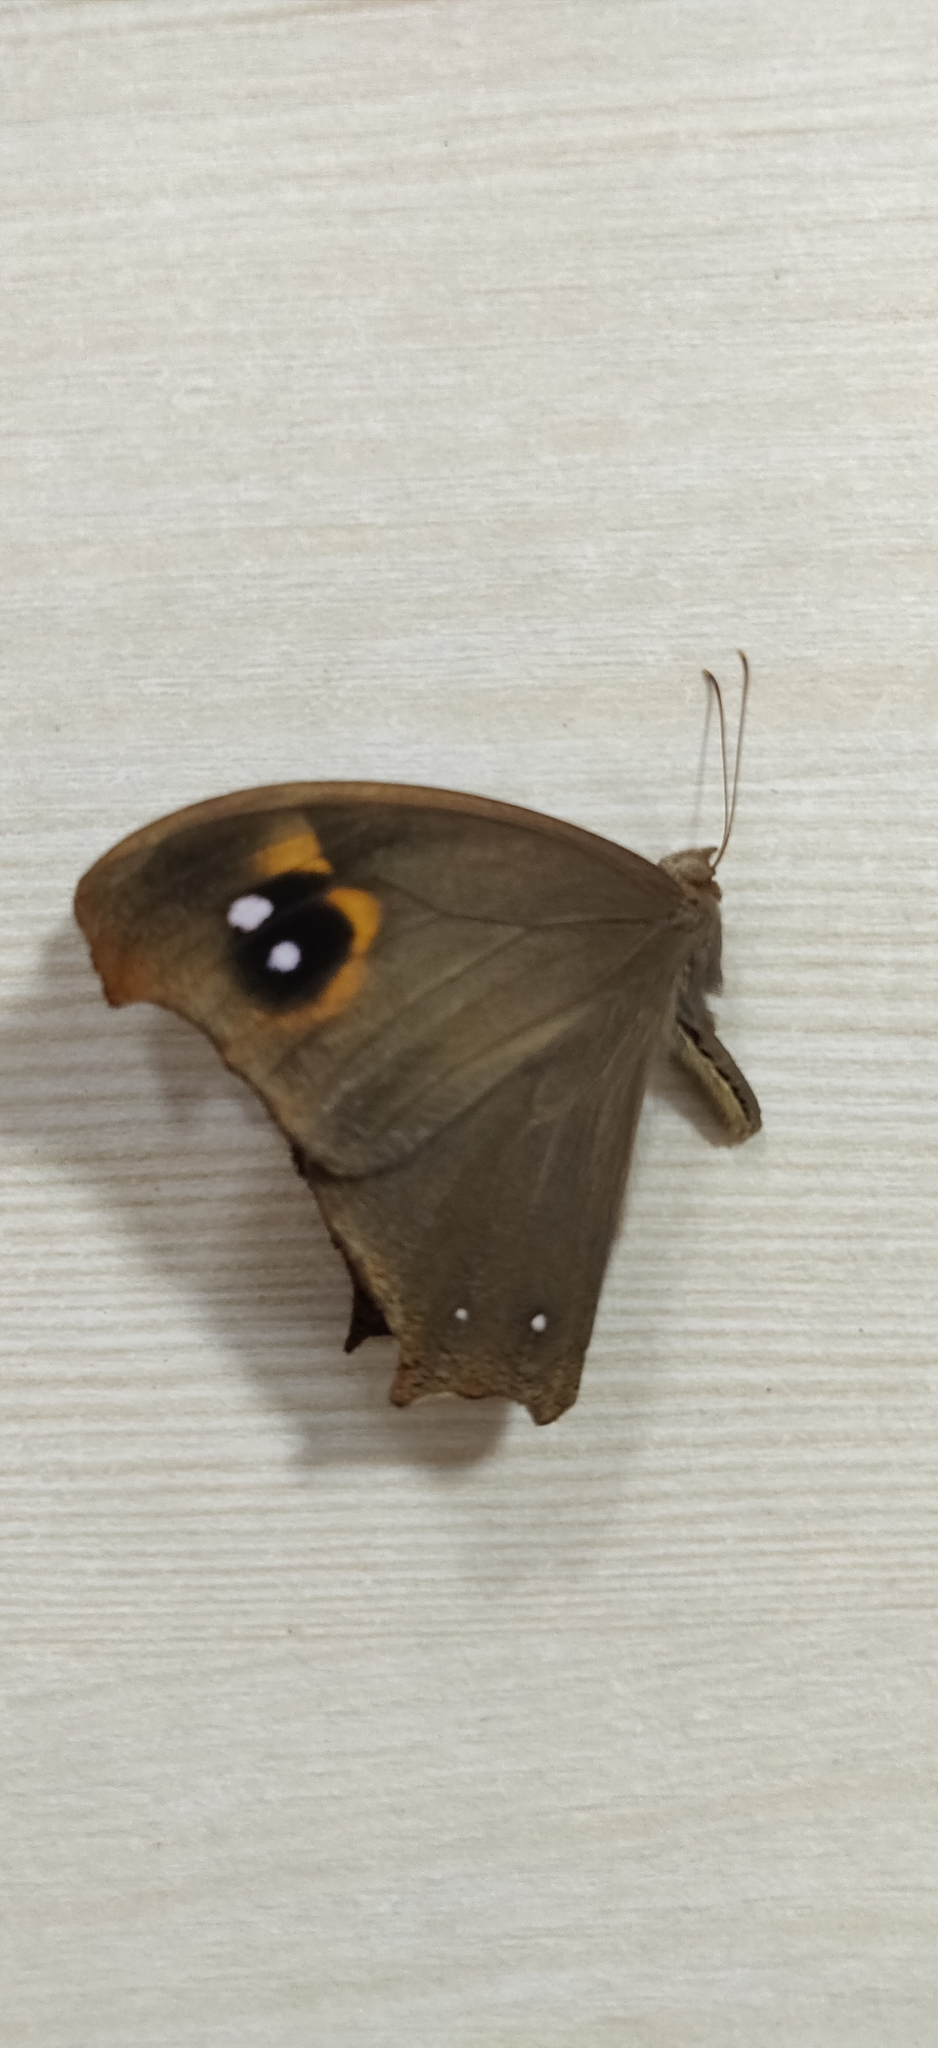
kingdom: Animalia
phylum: Arthropoda
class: Insecta
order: Lepidoptera
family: Nymphalidae
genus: Melanitis
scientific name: Melanitis leda
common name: Twilight brown
